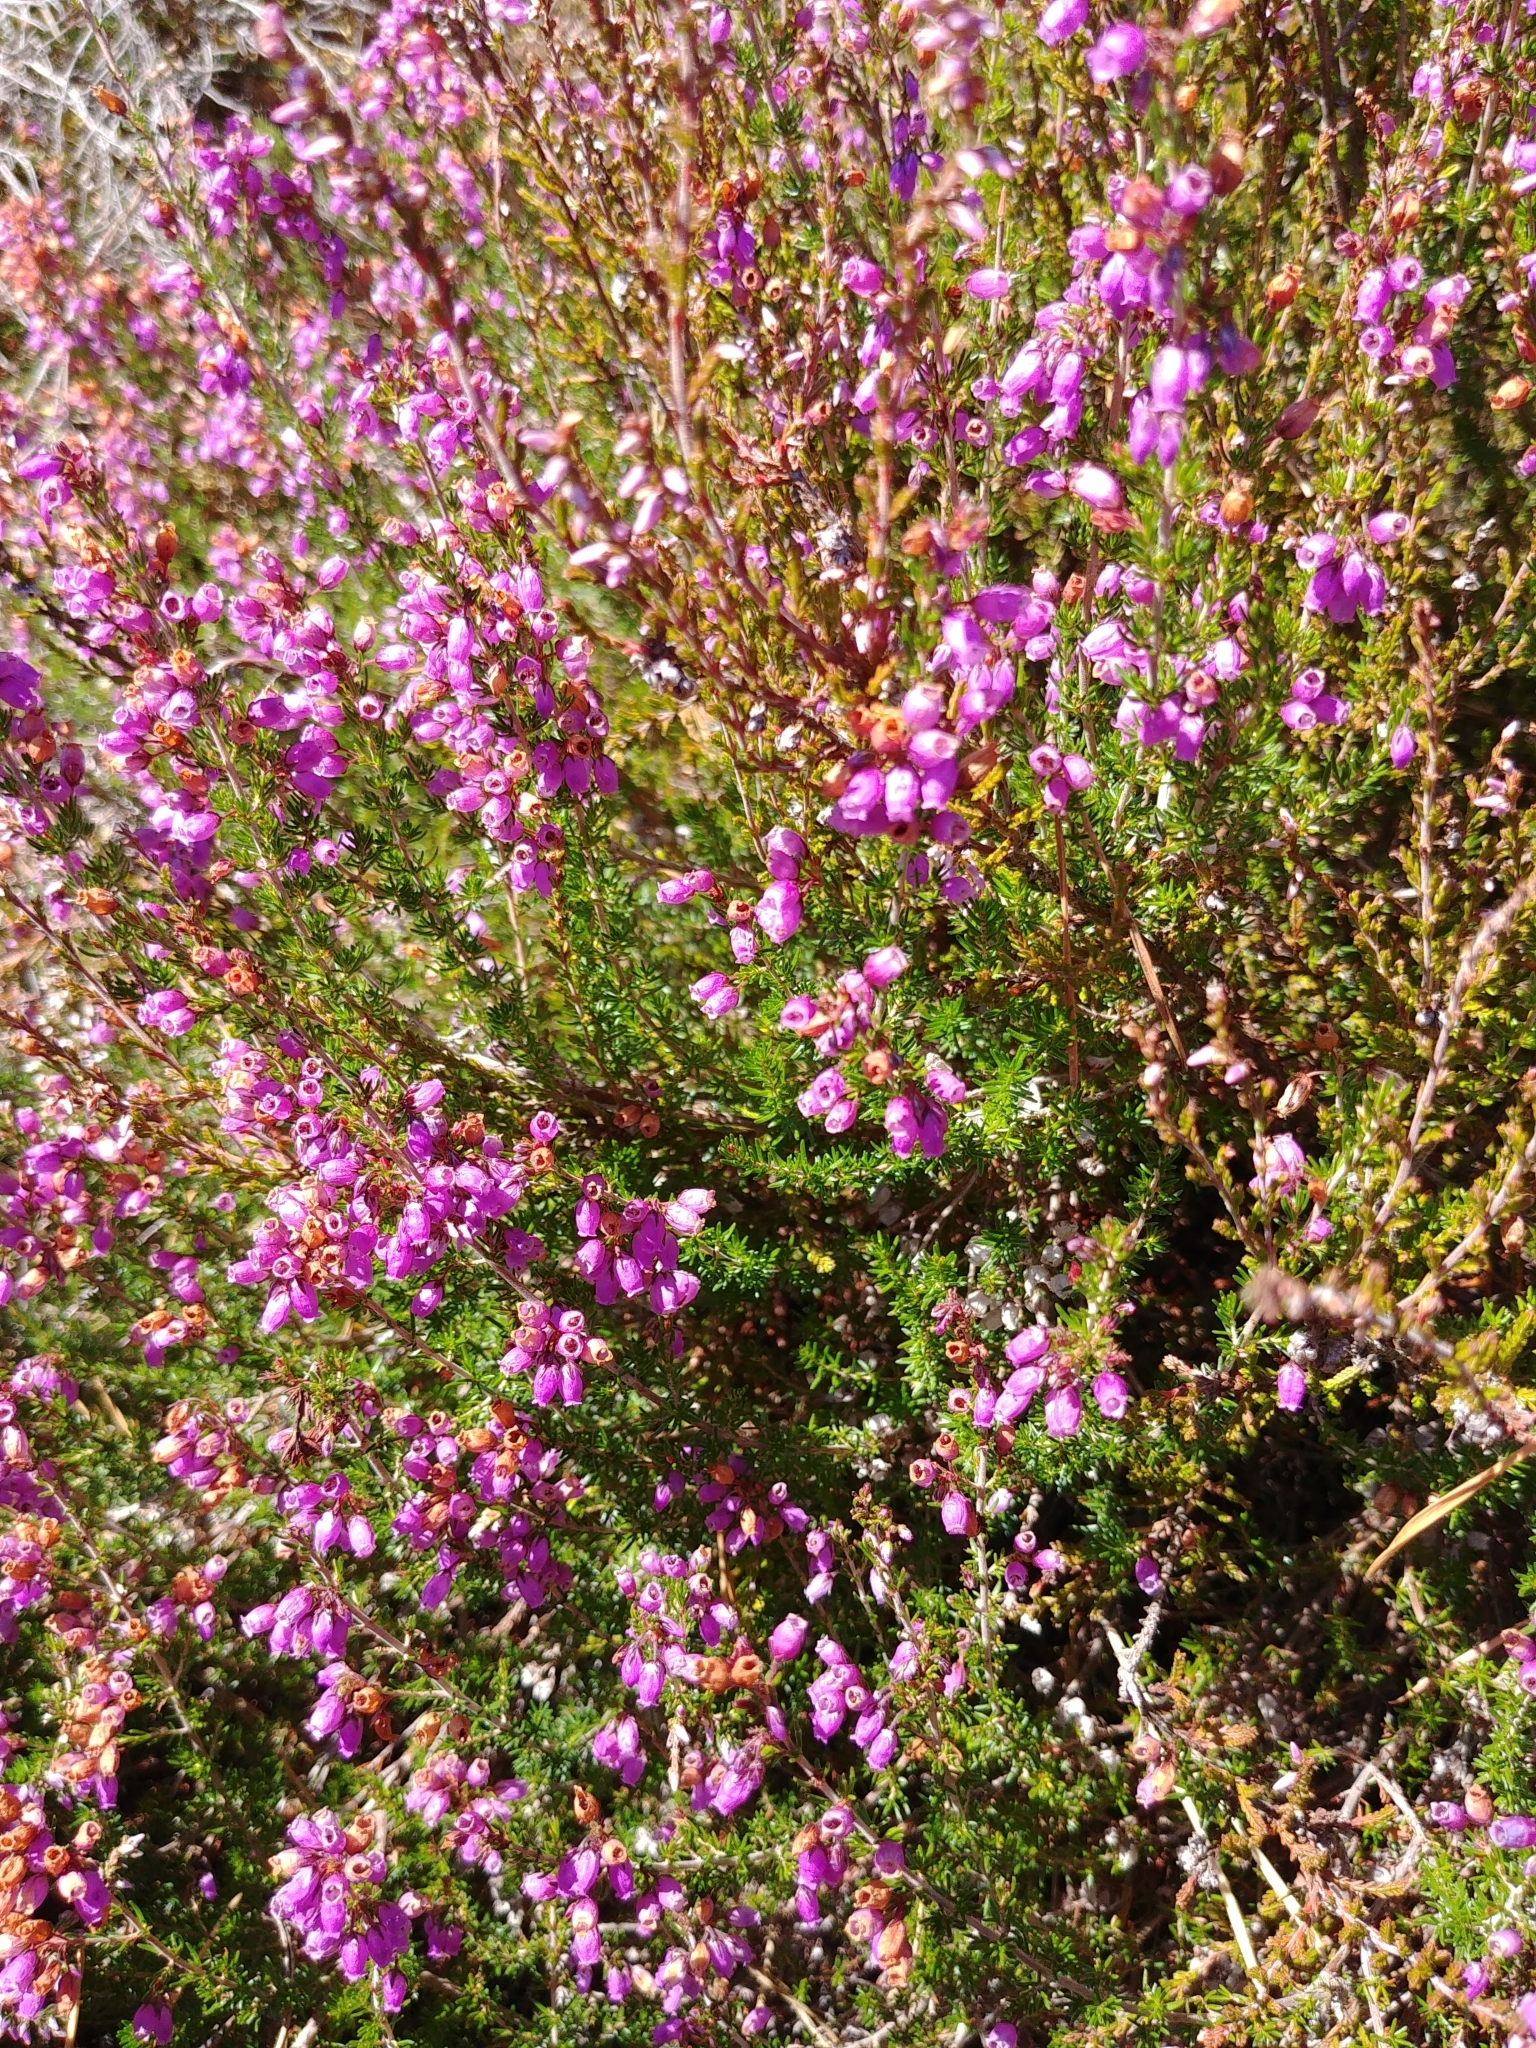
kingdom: Plantae
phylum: Tracheophyta
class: Magnoliopsida
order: Ericales
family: Ericaceae
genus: Erica
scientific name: Erica cinerea
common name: Bell heather
